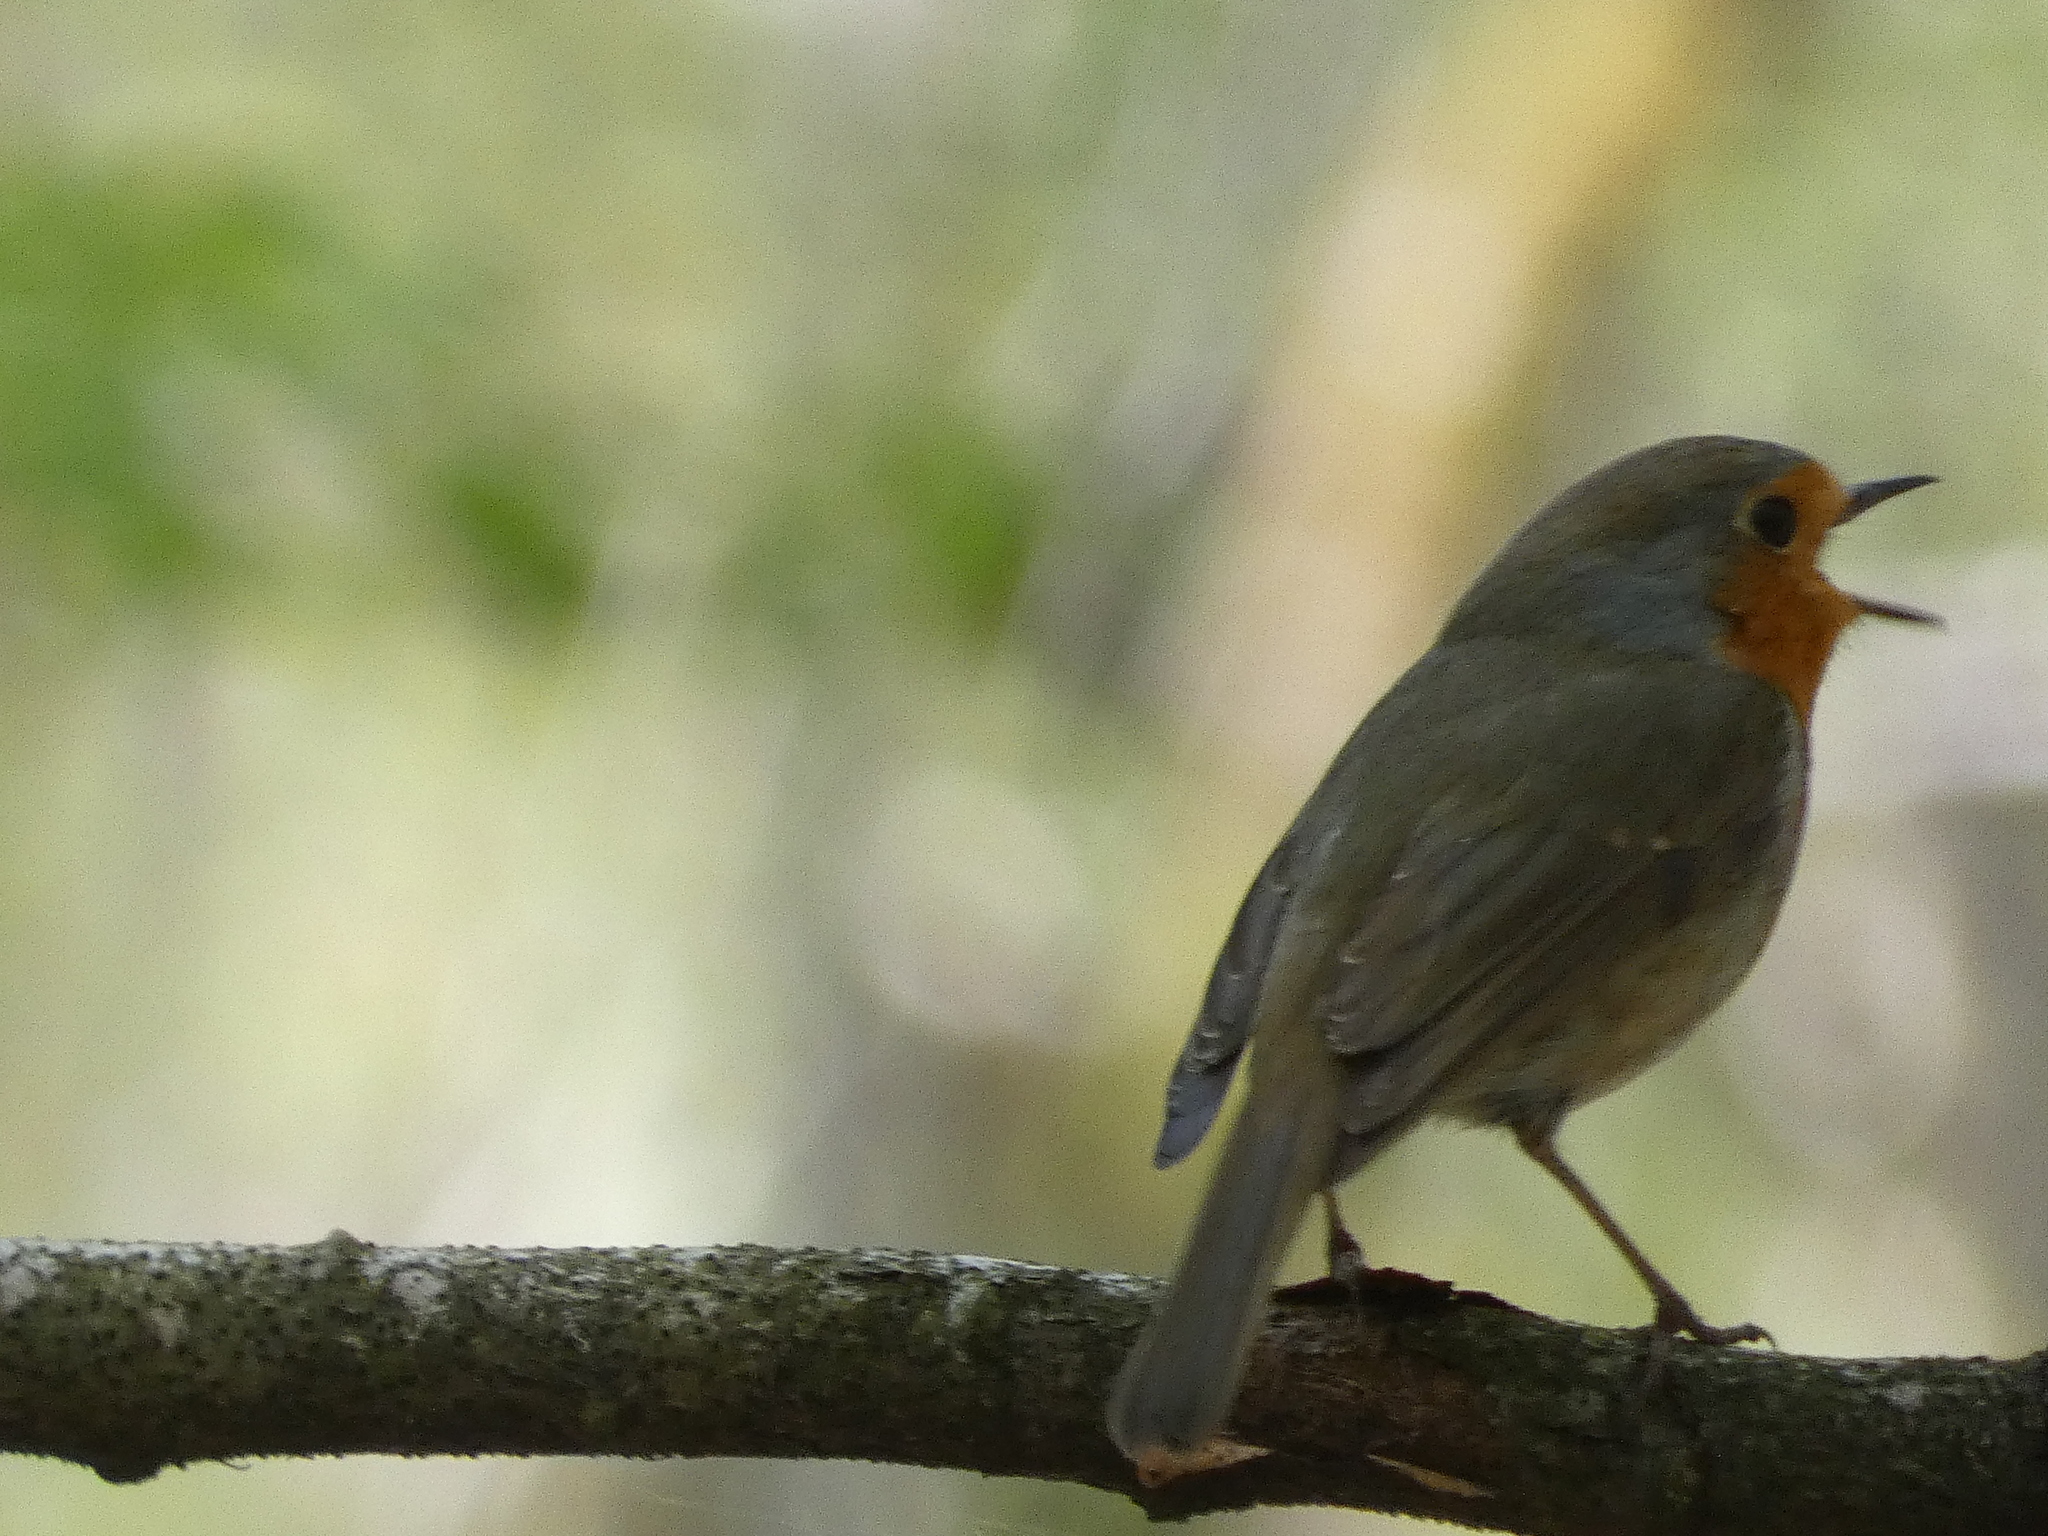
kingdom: Animalia
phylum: Chordata
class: Aves
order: Passeriformes
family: Muscicapidae
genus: Erithacus
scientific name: Erithacus rubecula
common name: European robin
